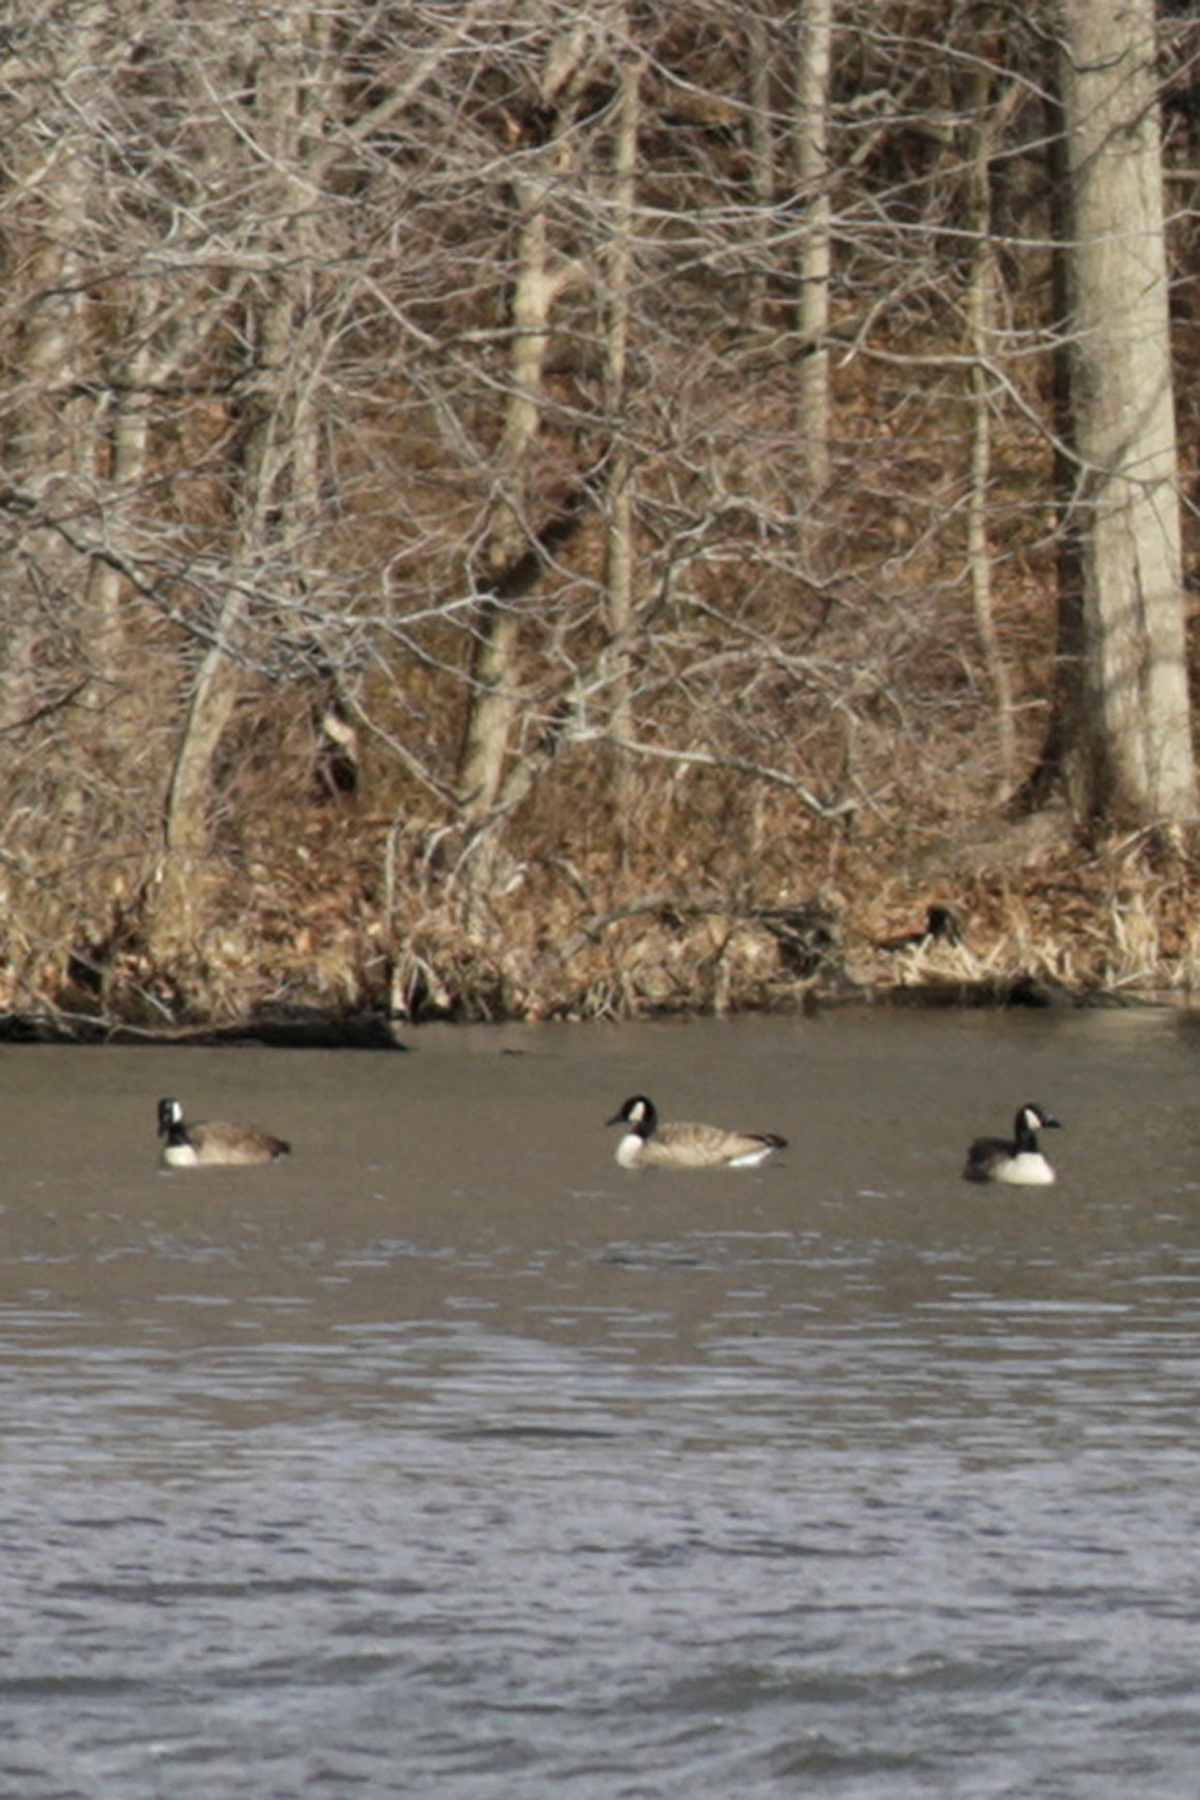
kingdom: Animalia
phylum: Chordata
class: Aves
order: Anseriformes
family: Anatidae
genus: Branta
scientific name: Branta canadensis
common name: Canada goose
